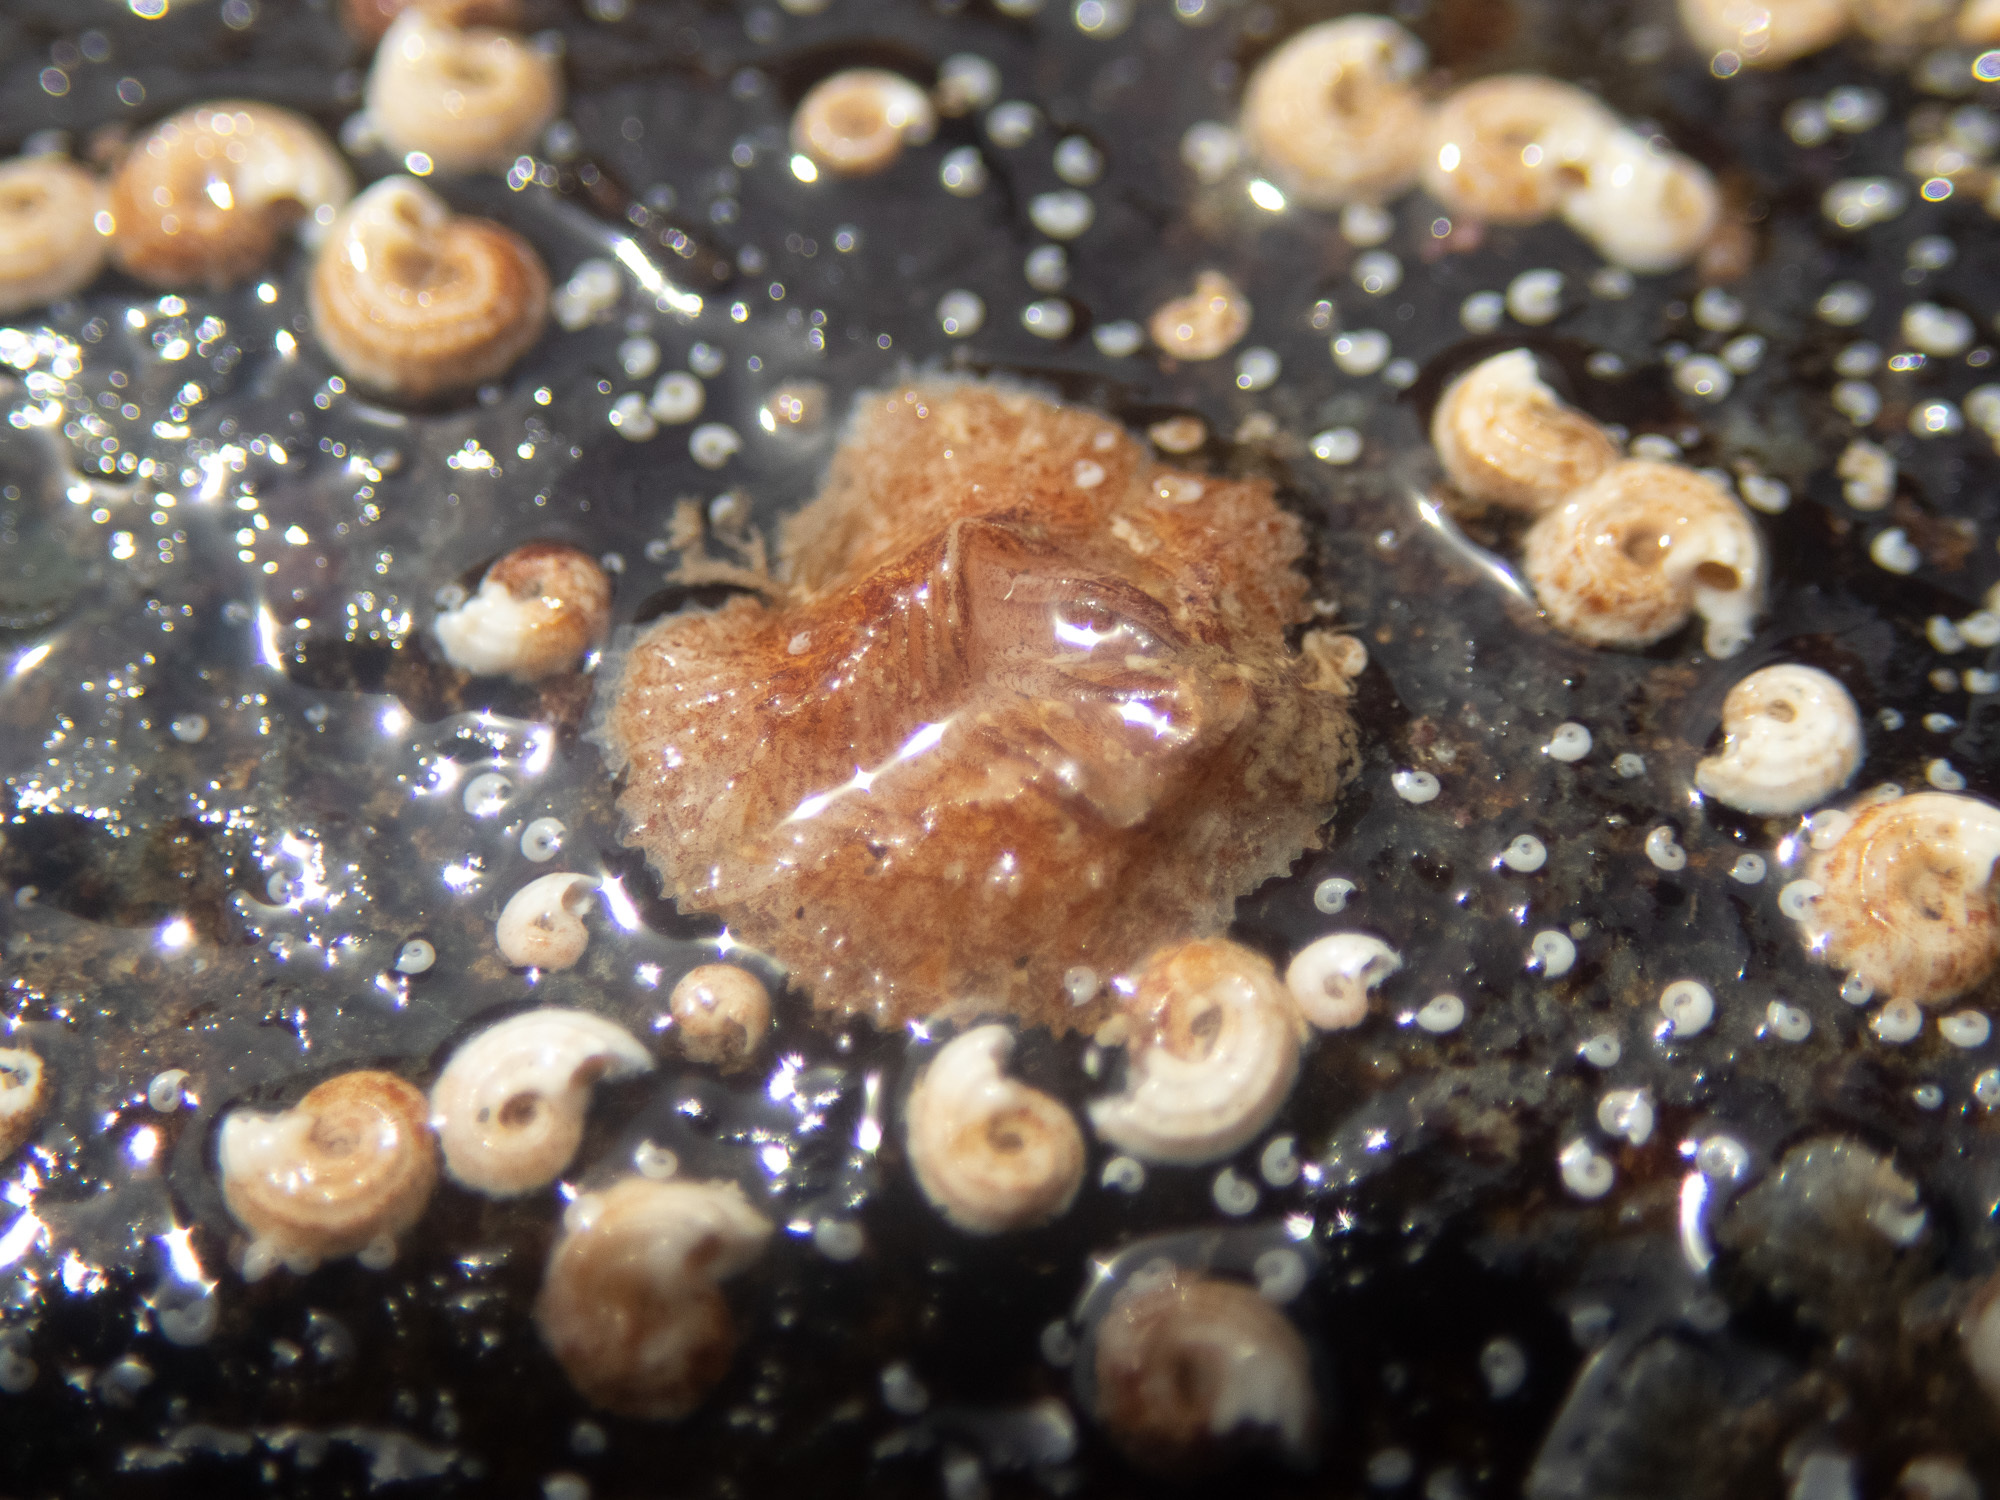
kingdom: Animalia
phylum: Arthropoda
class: Maxillopoda
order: Sessilia
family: Verrucidae
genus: Verruca
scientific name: Verruca stroemia
